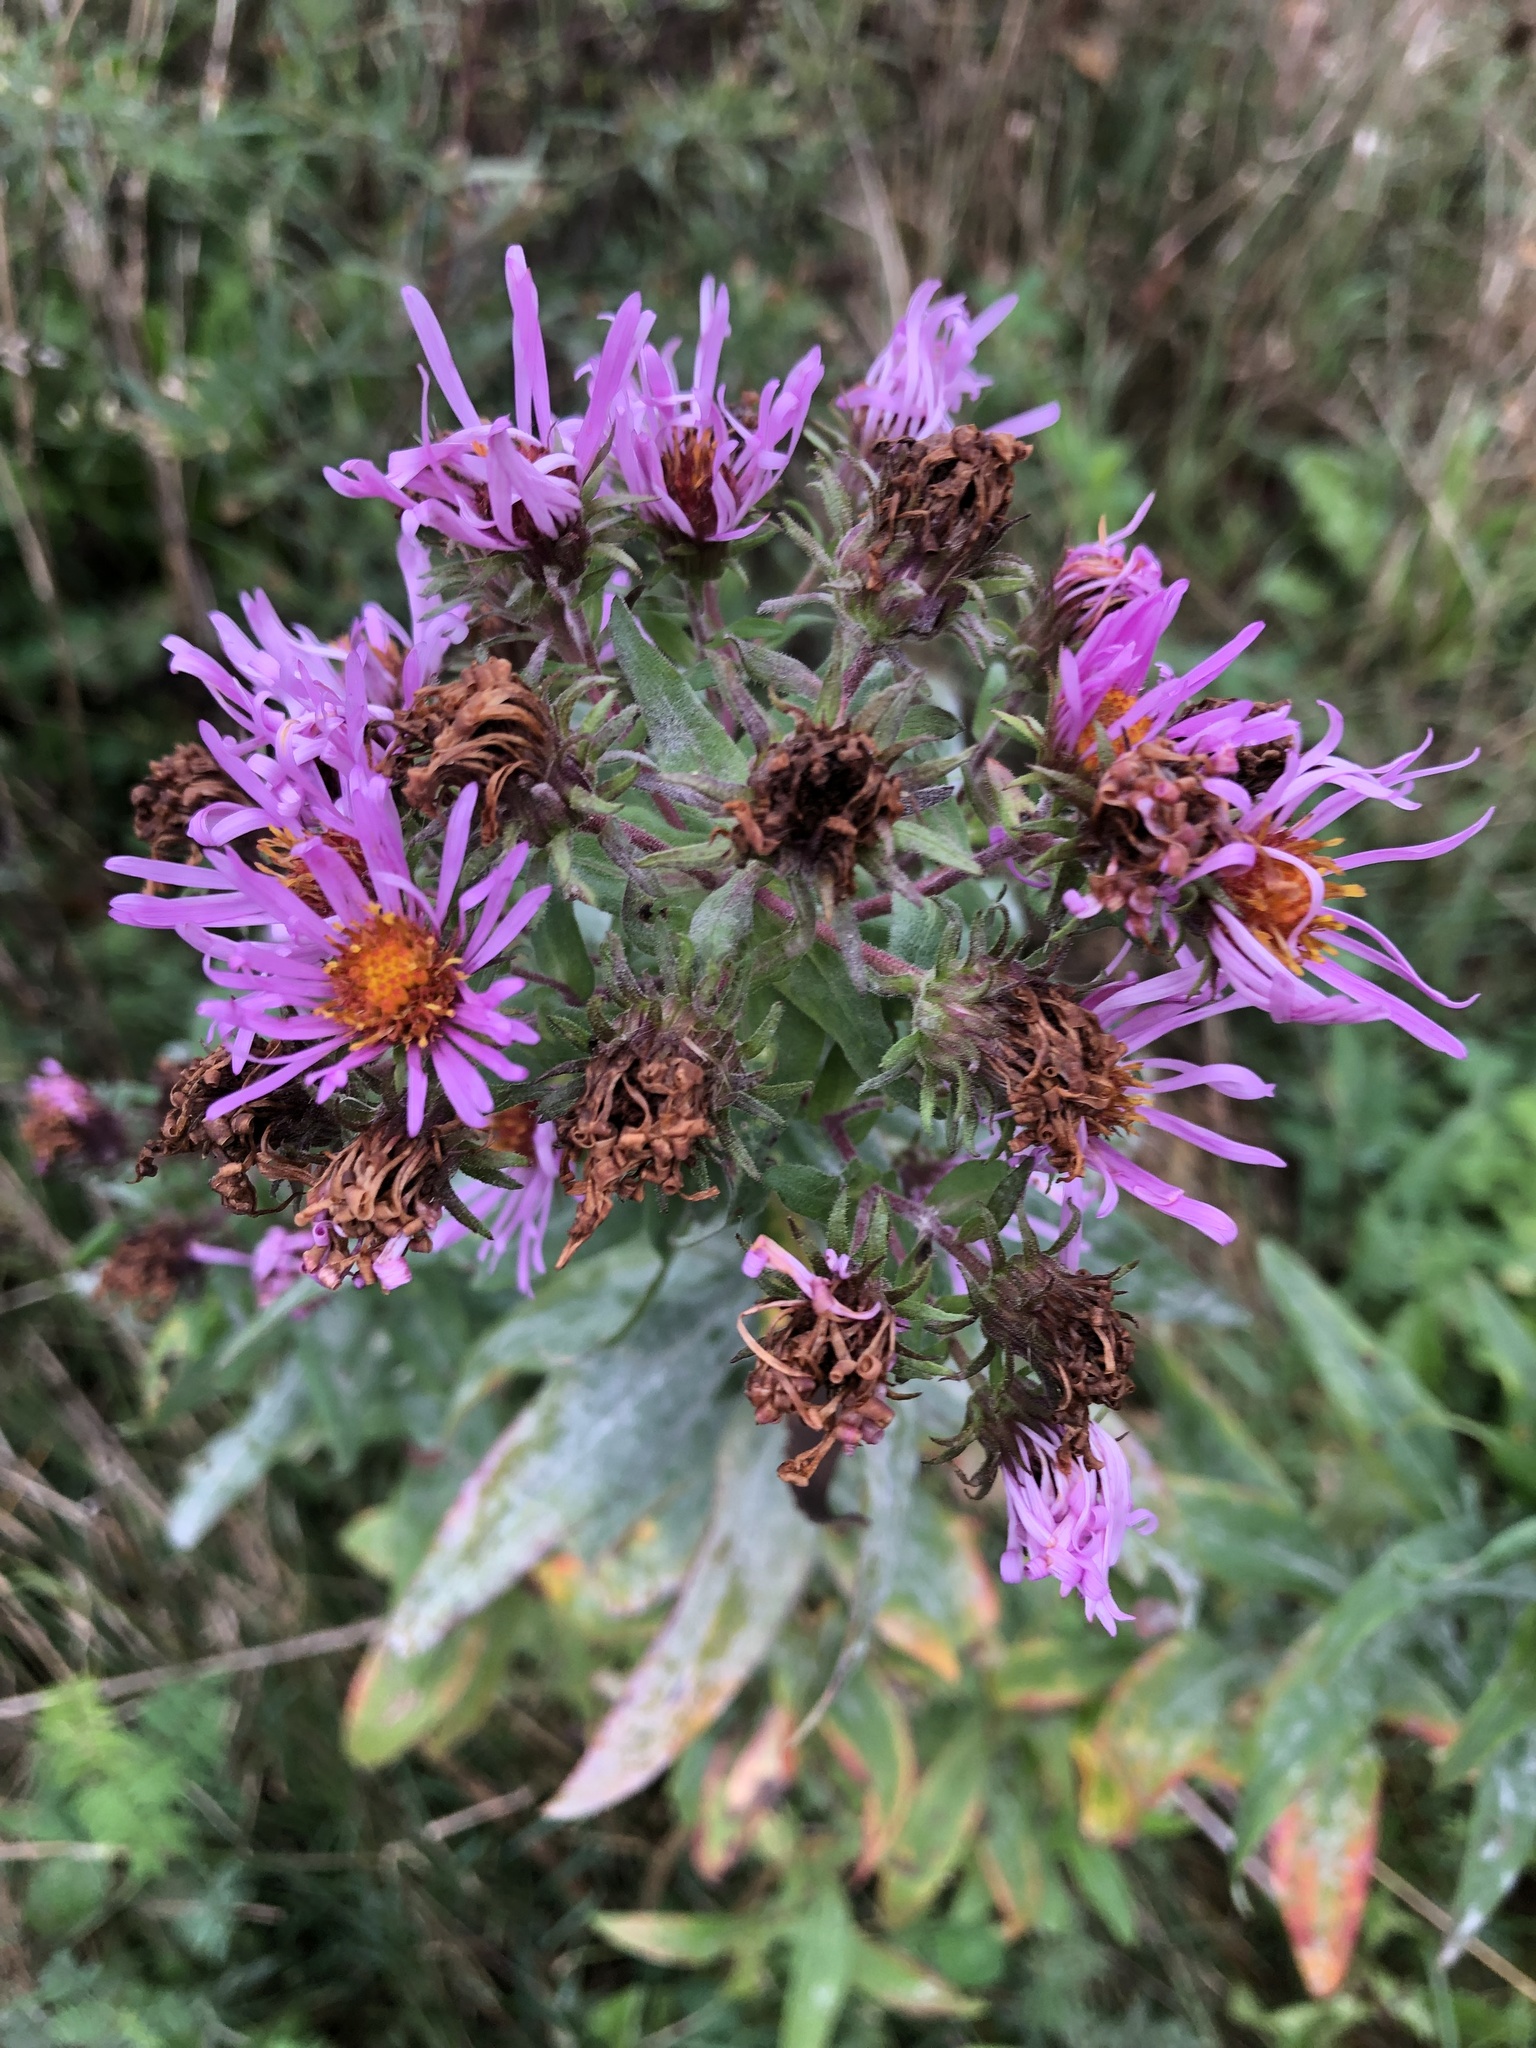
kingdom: Plantae
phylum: Tracheophyta
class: Magnoliopsida
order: Asterales
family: Asteraceae
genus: Symphyotrichum
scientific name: Symphyotrichum novae-angliae
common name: Michaelmas daisy
